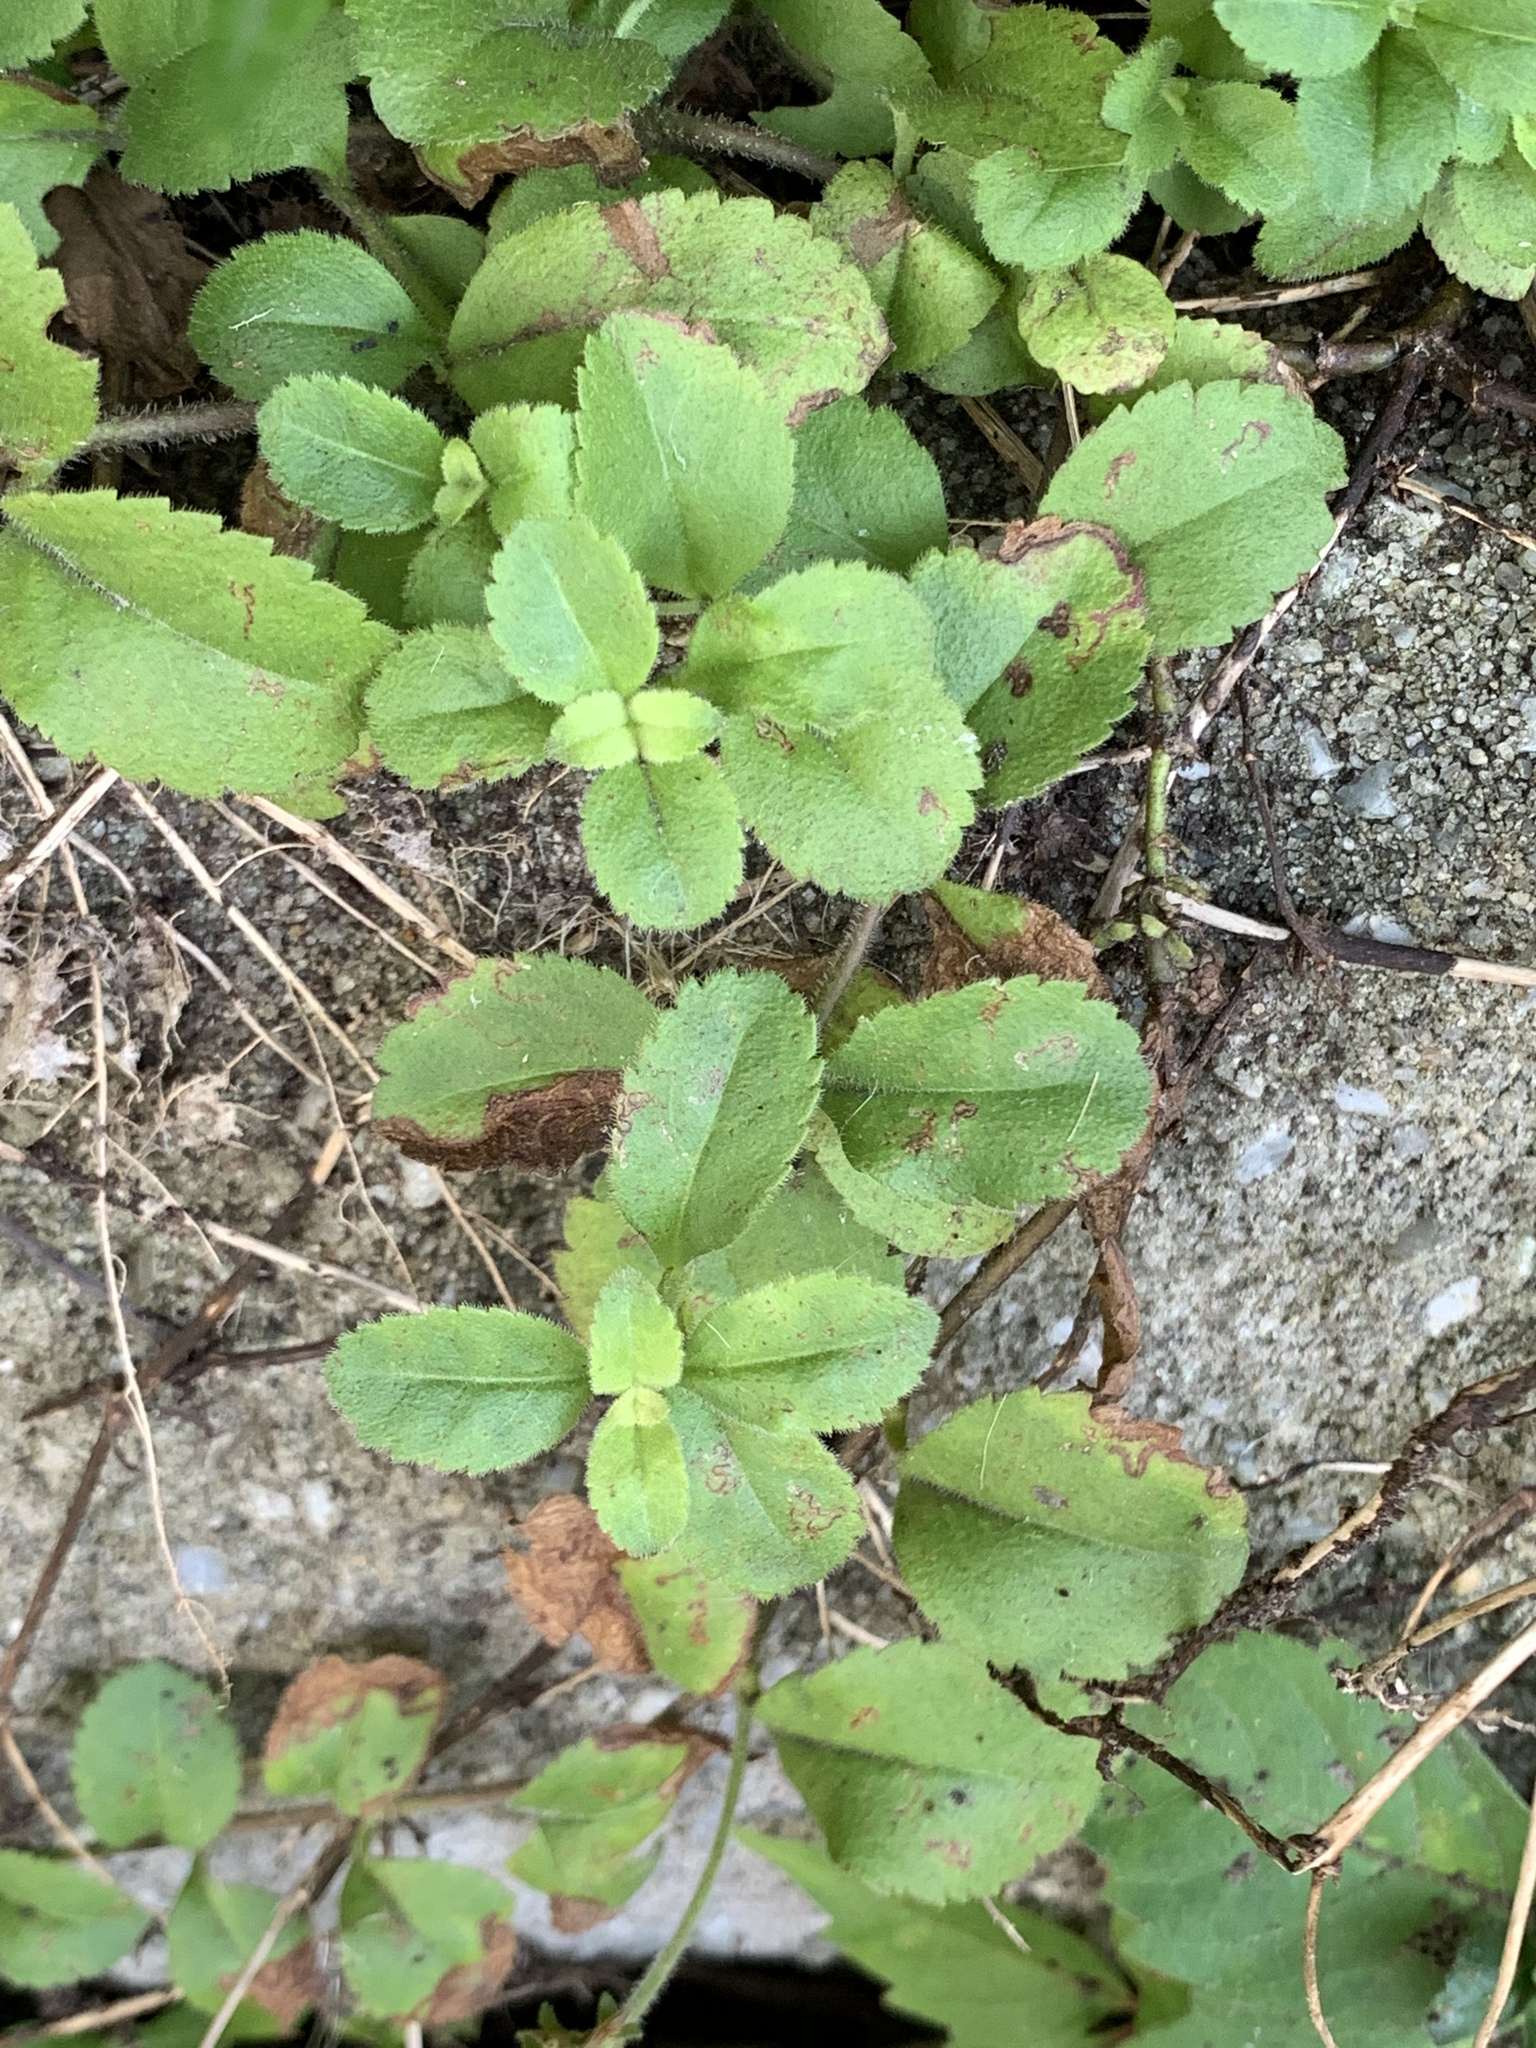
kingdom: Plantae
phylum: Tracheophyta
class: Magnoliopsida
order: Lamiales
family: Plantaginaceae
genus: Veronica
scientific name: Veronica officinalis
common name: Common speedwell
